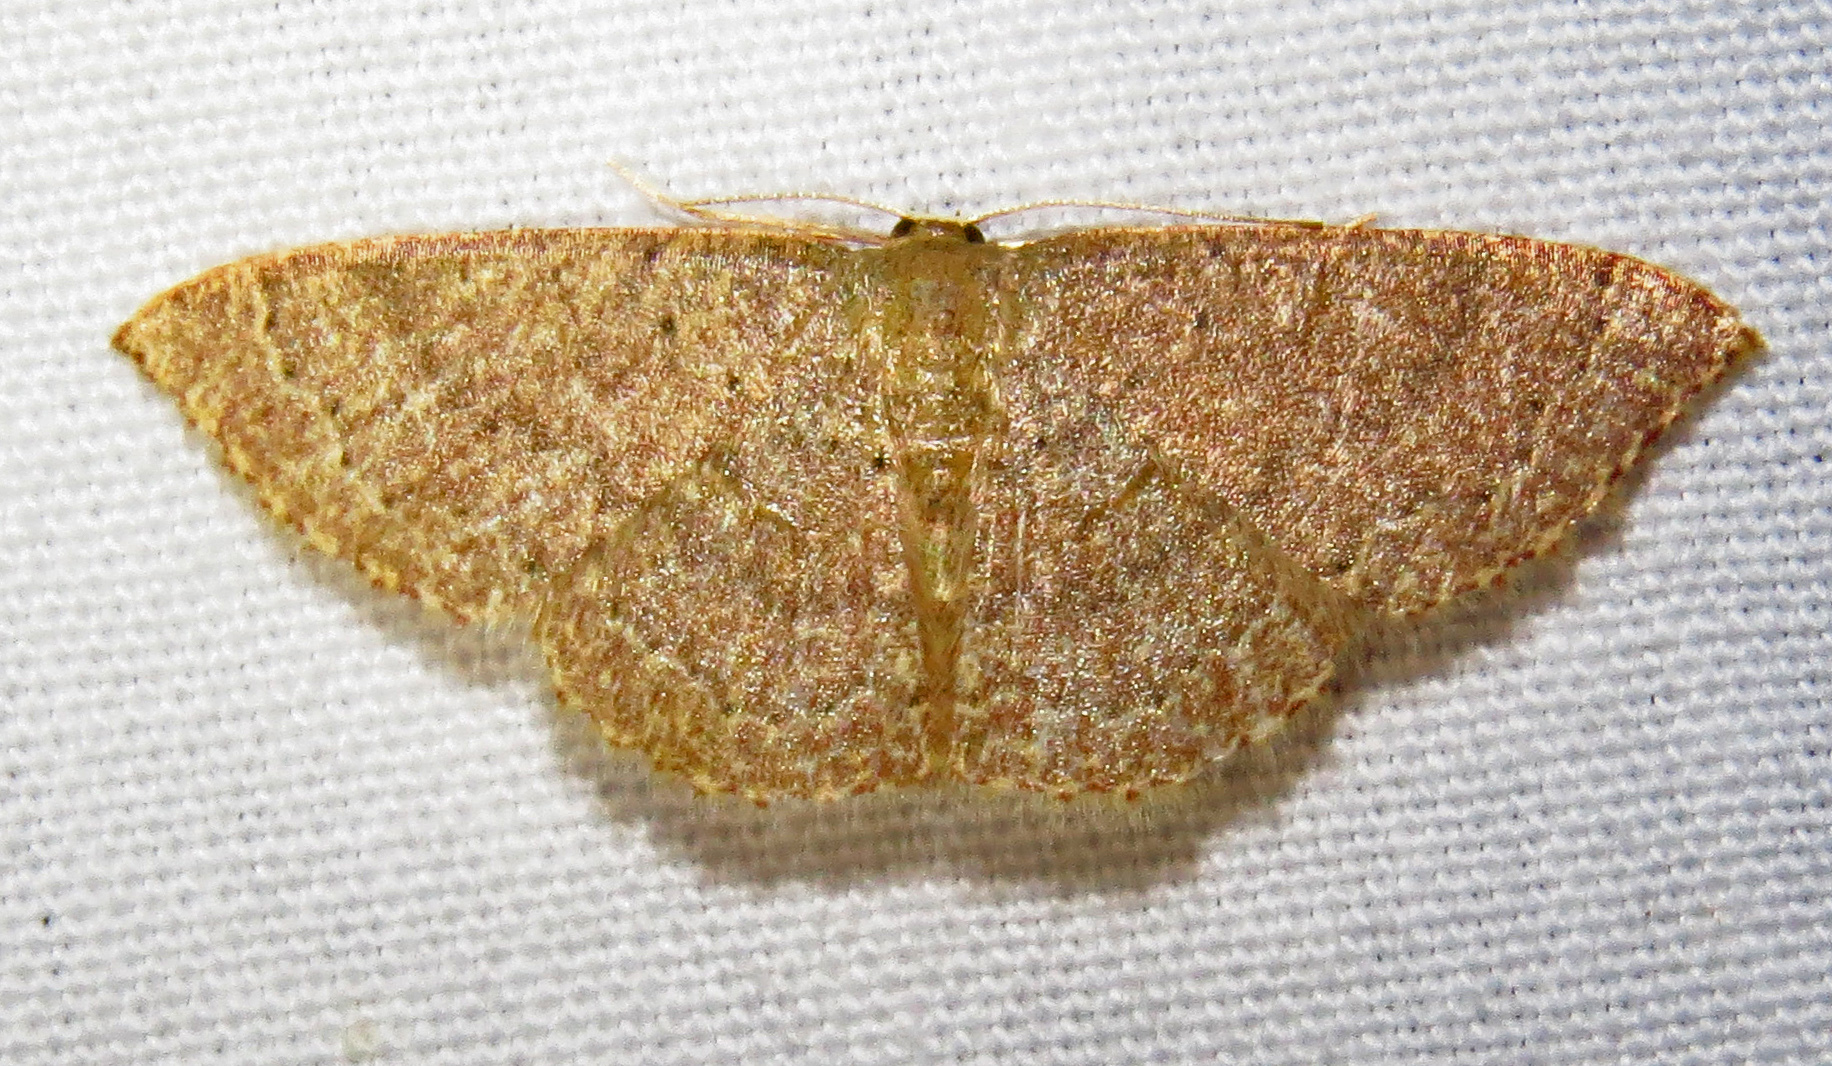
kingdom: Animalia
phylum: Arthropoda
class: Insecta
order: Lepidoptera
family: Geometridae
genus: Pleuroprucha
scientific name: Pleuroprucha insulsaria
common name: Common tan wave
